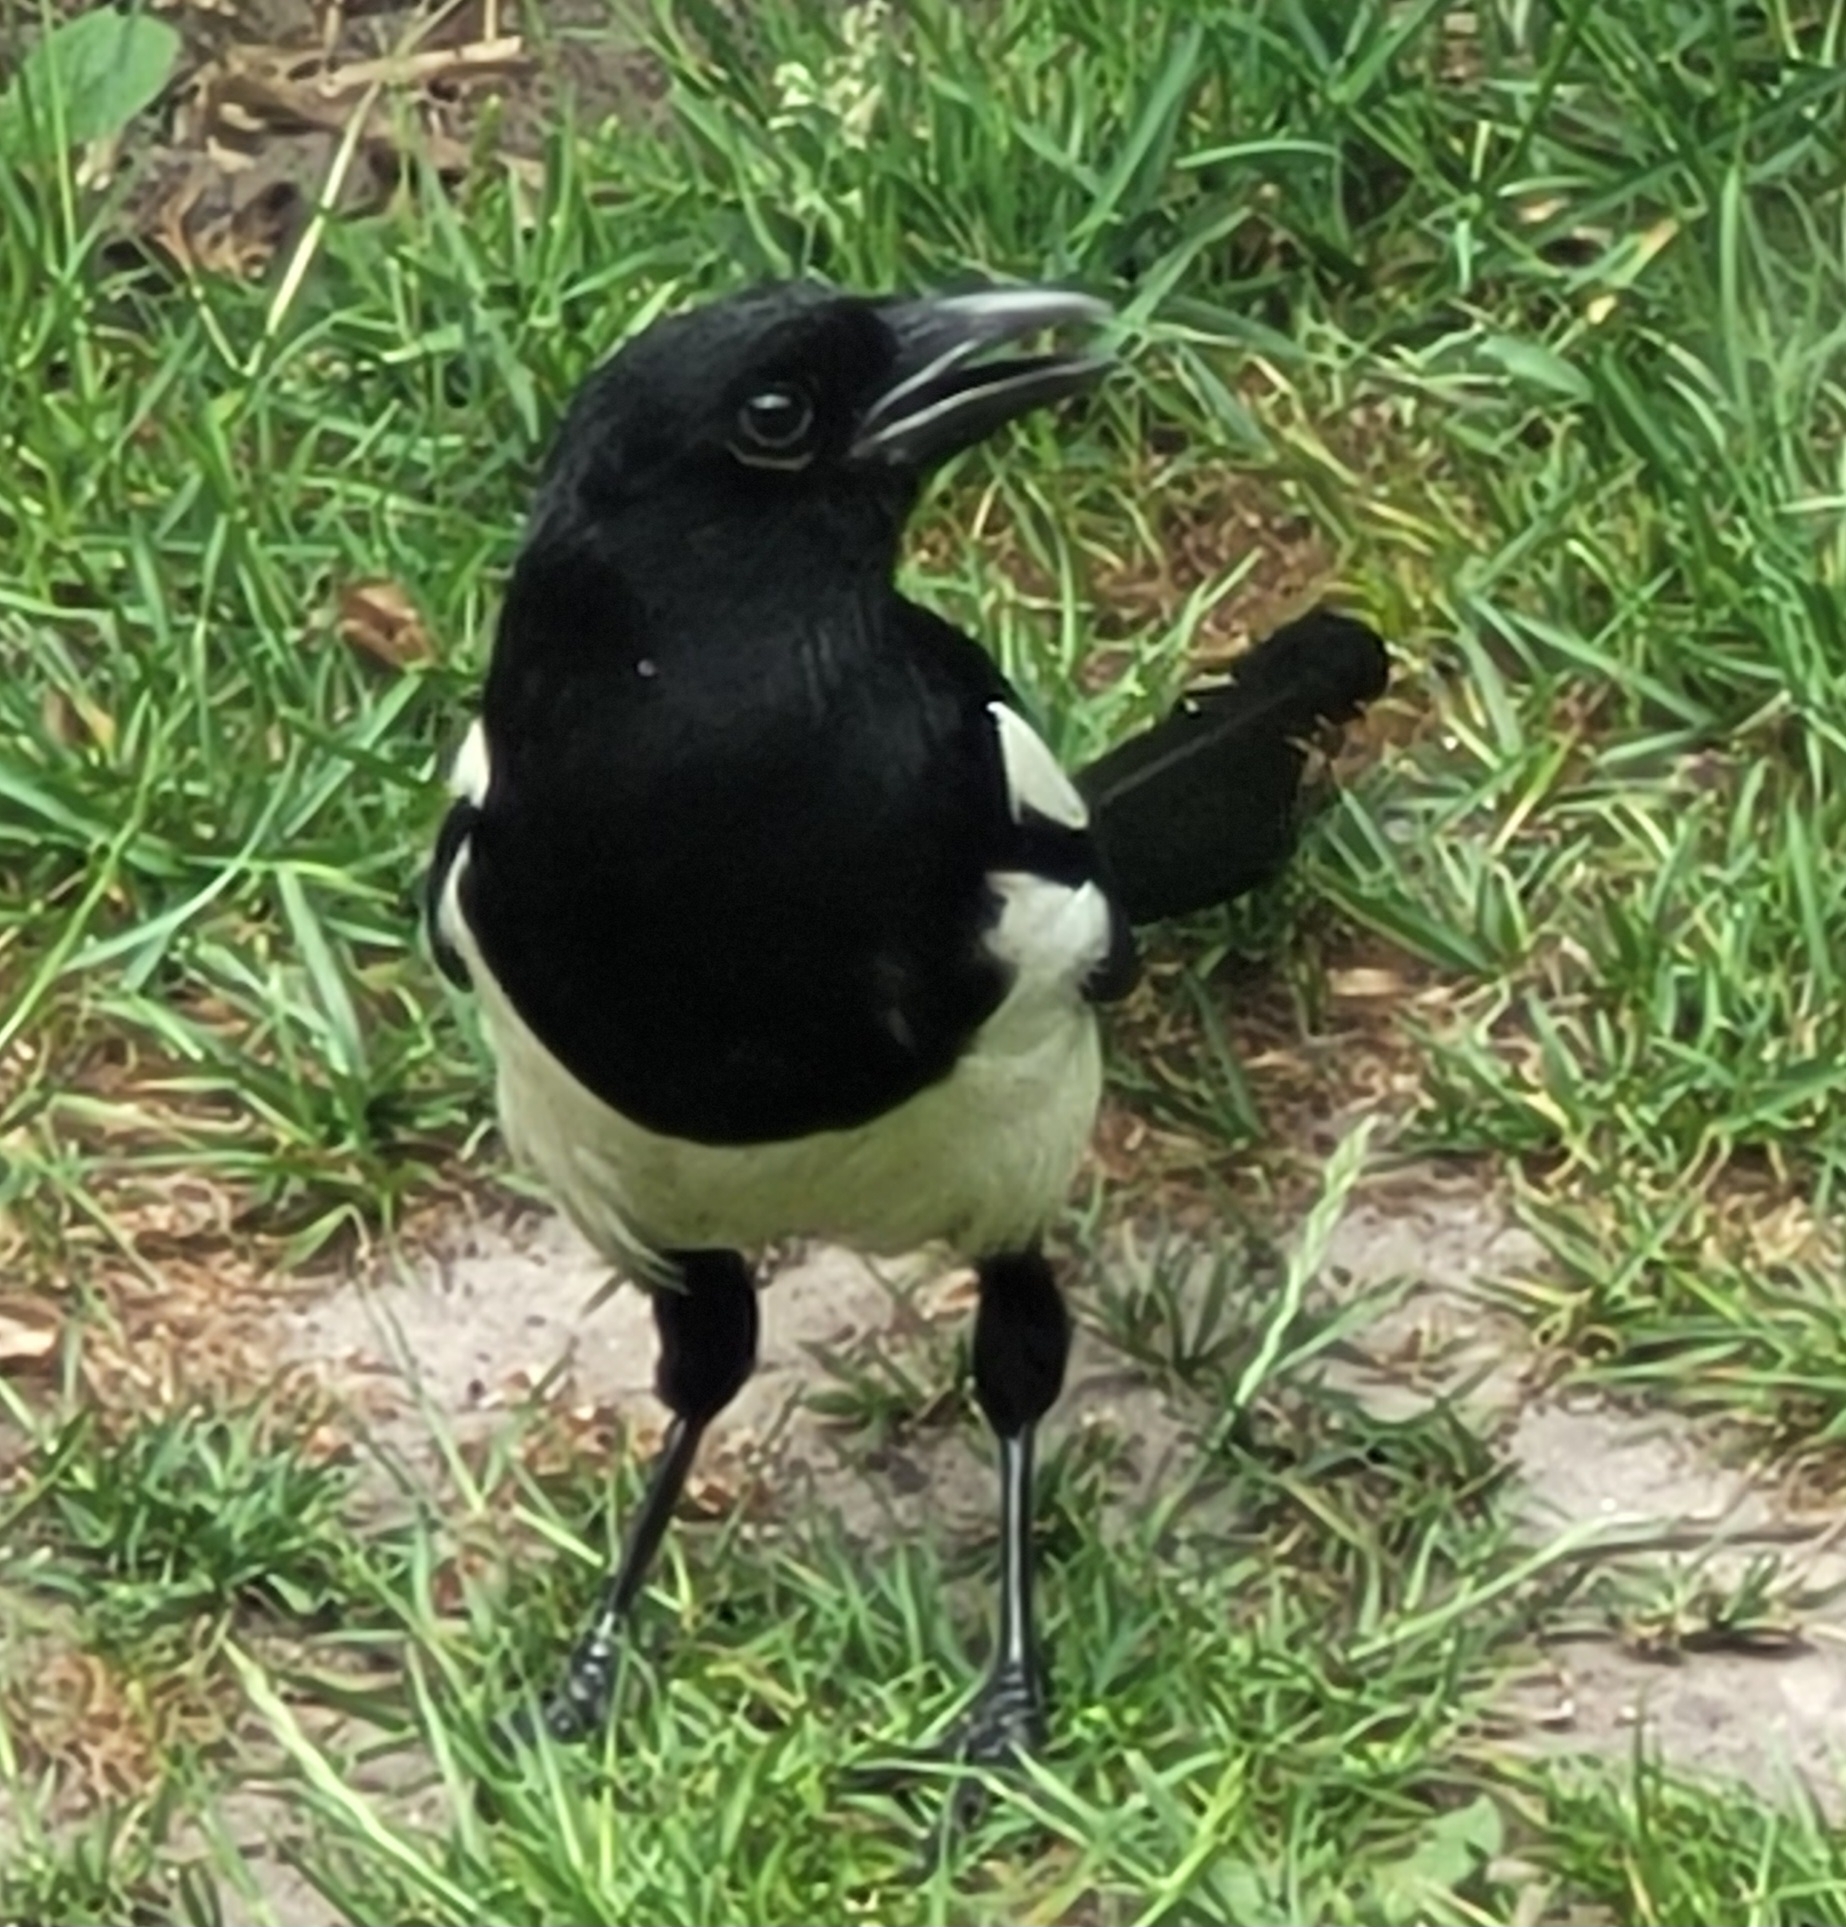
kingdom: Animalia
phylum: Chordata
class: Aves
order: Passeriformes
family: Corvidae
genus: Pica
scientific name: Pica pica
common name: Eurasian magpie
